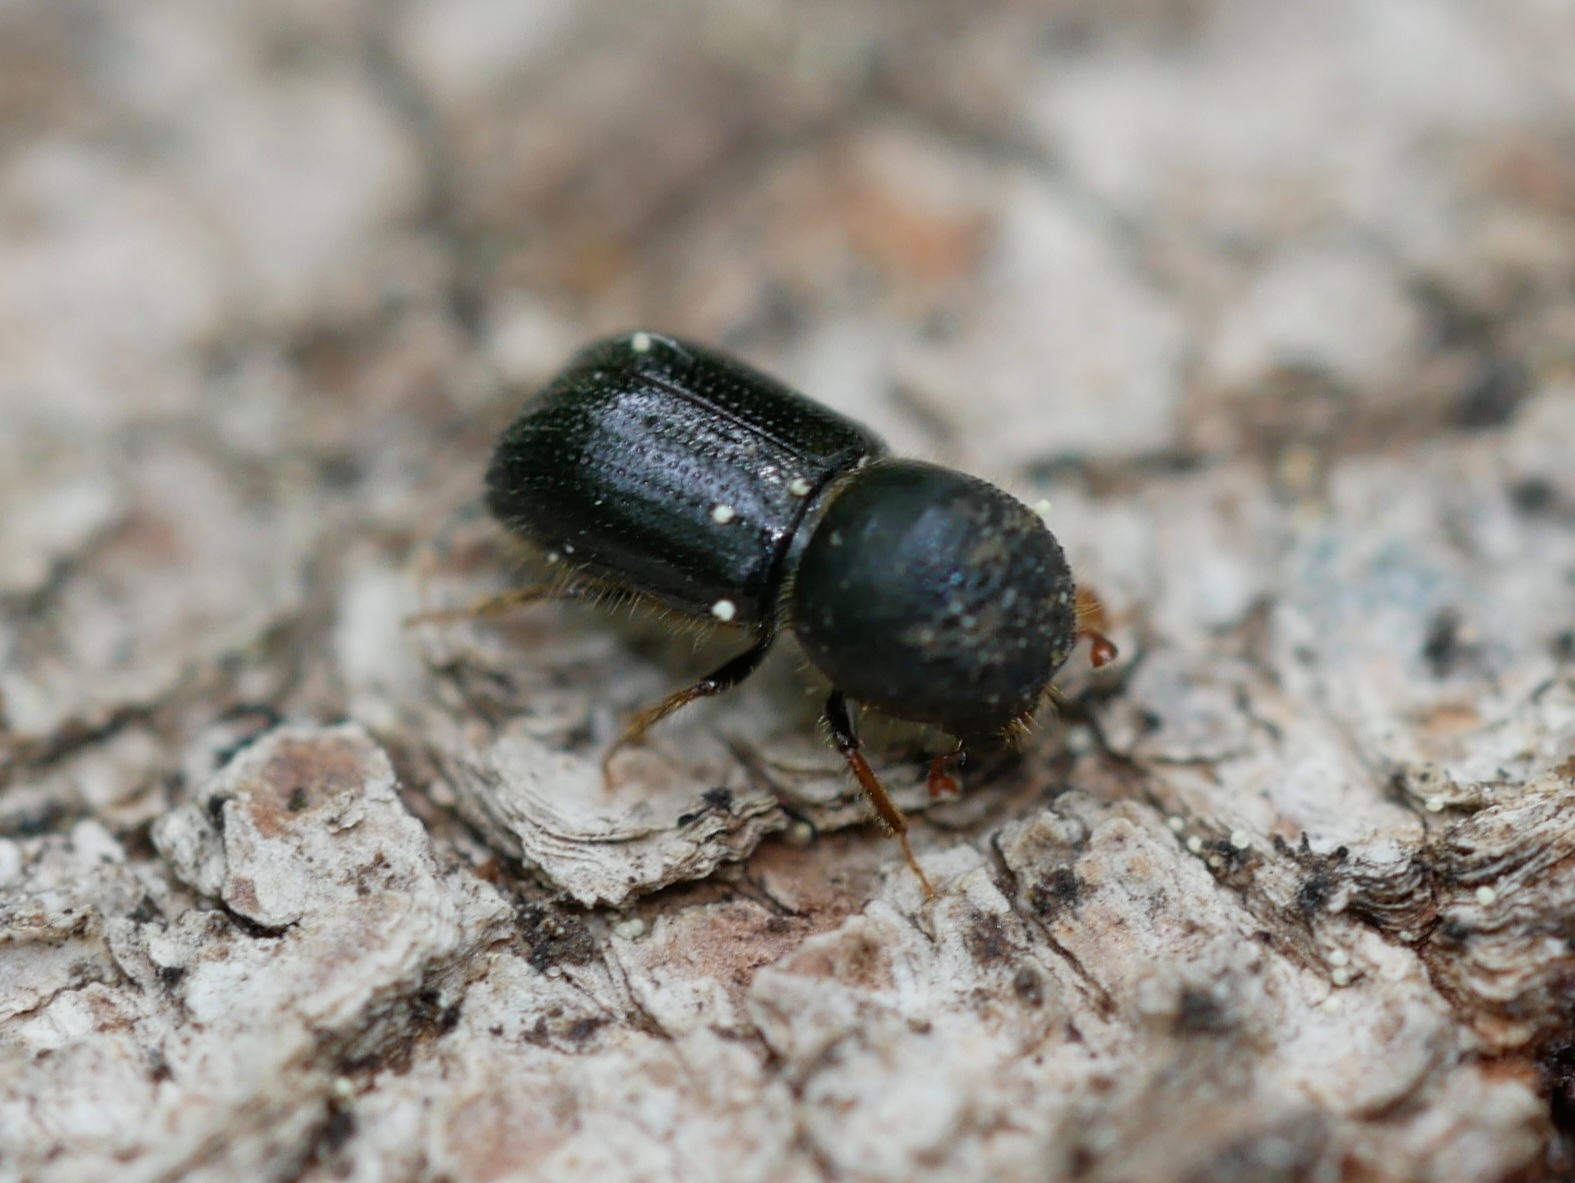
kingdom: Animalia
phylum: Arthropoda
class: Insecta
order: Coleoptera
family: Curculionidae
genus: Anisandrus
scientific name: Anisandrus dispar
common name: European shothole borer
